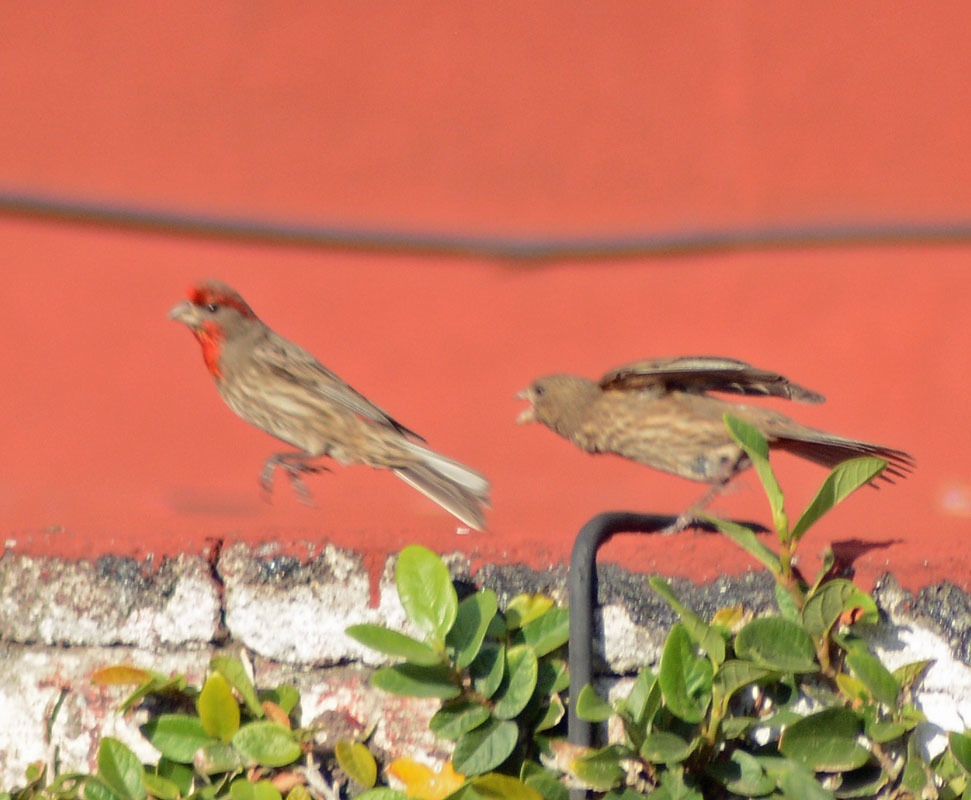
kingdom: Animalia
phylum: Chordata
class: Aves
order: Passeriformes
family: Fringillidae
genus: Haemorhous
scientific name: Haemorhous mexicanus
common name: House finch
